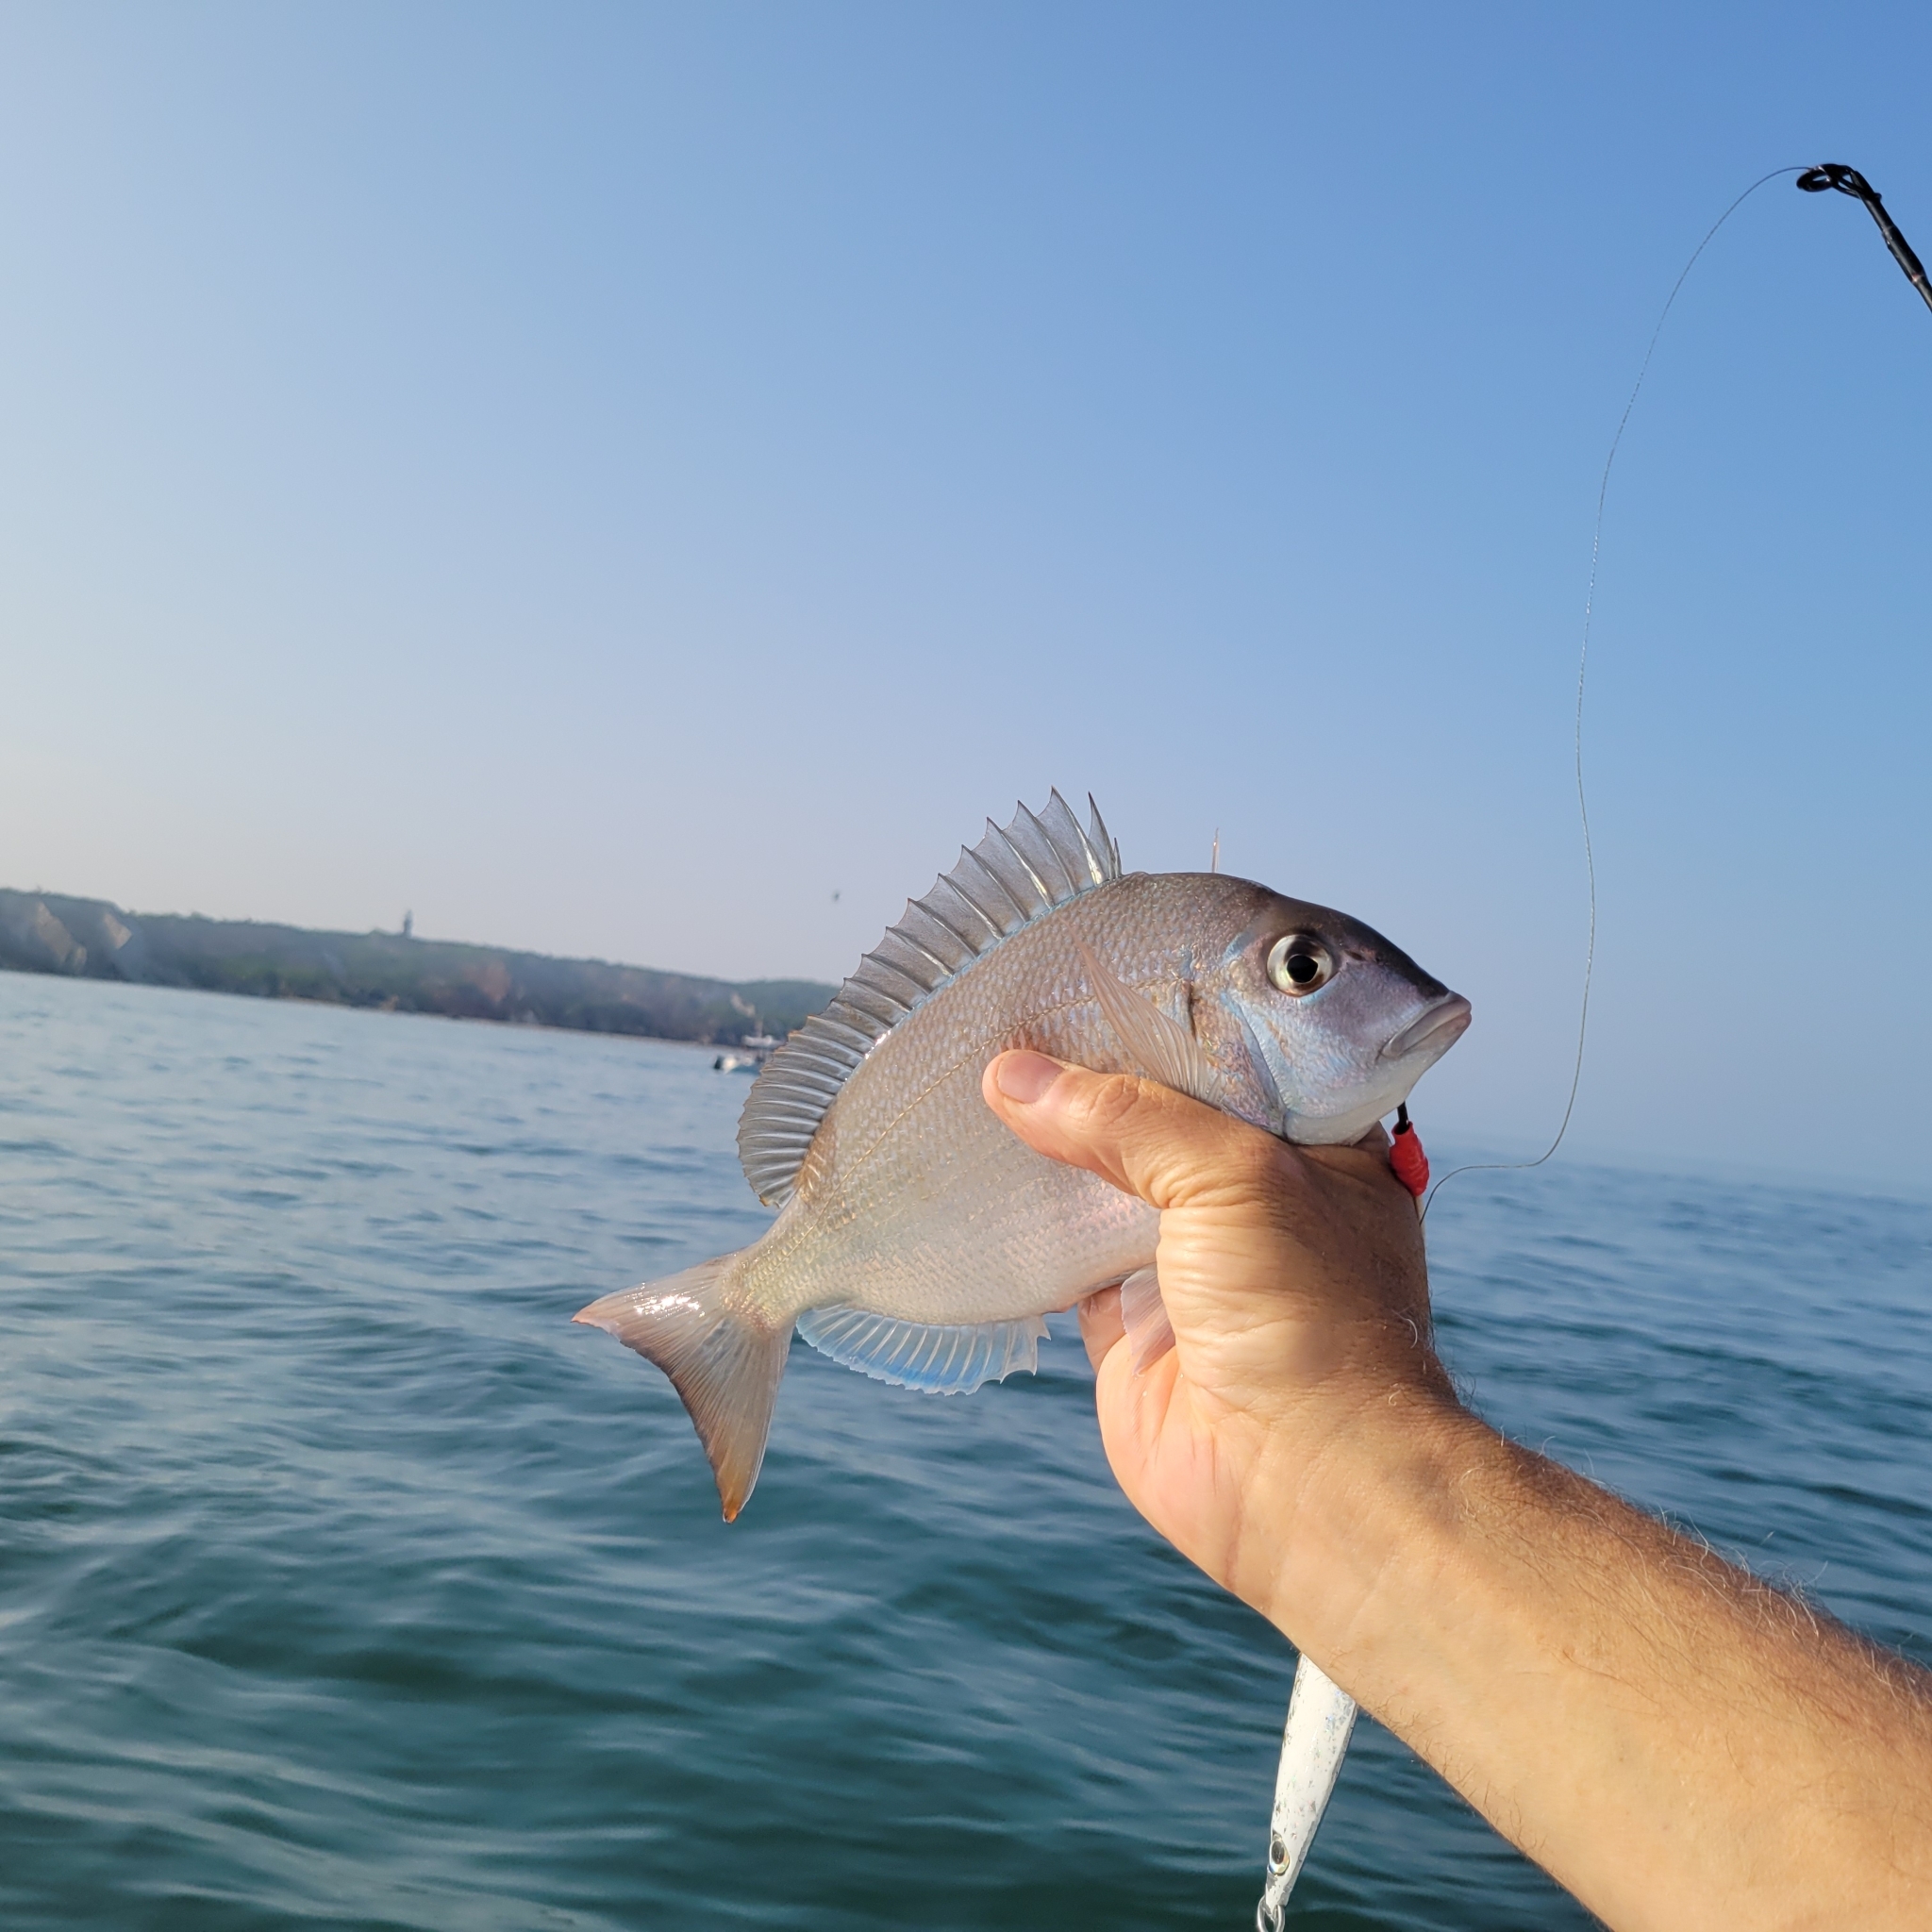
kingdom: Animalia
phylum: Chordata
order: Perciformes
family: Sparidae
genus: Stenotomus
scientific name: Stenotomus chrysops
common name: Scup
